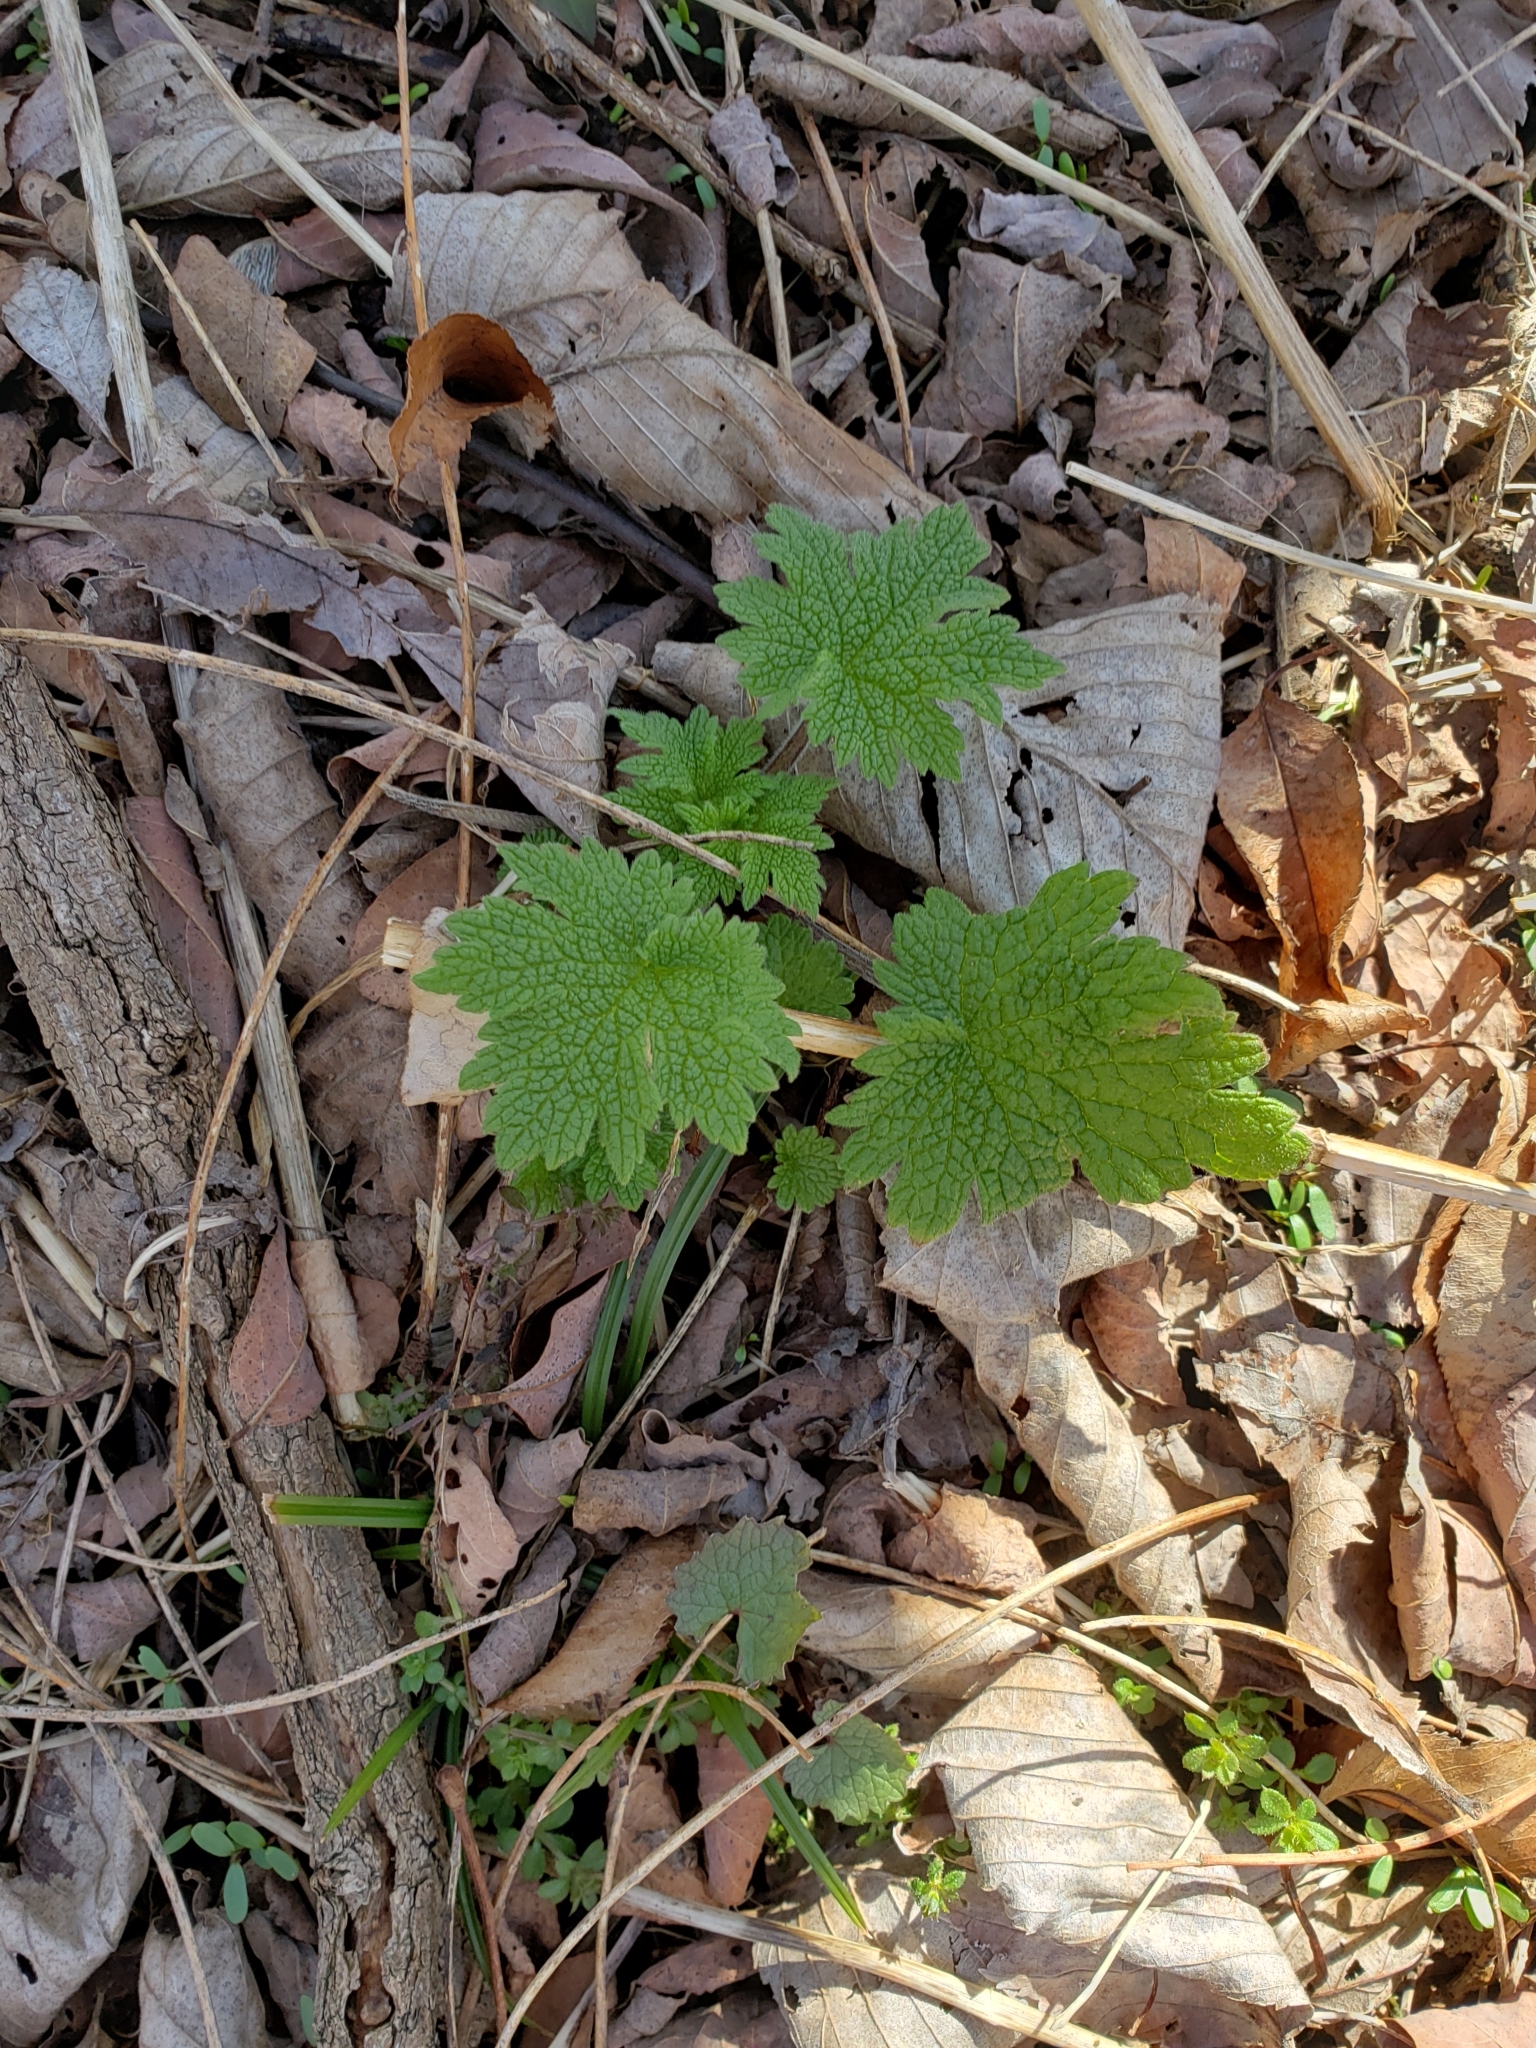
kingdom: Plantae
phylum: Tracheophyta
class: Magnoliopsida
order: Lamiales
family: Lamiaceae
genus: Leonurus
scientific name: Leonurus cardiaca
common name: Motherwort
